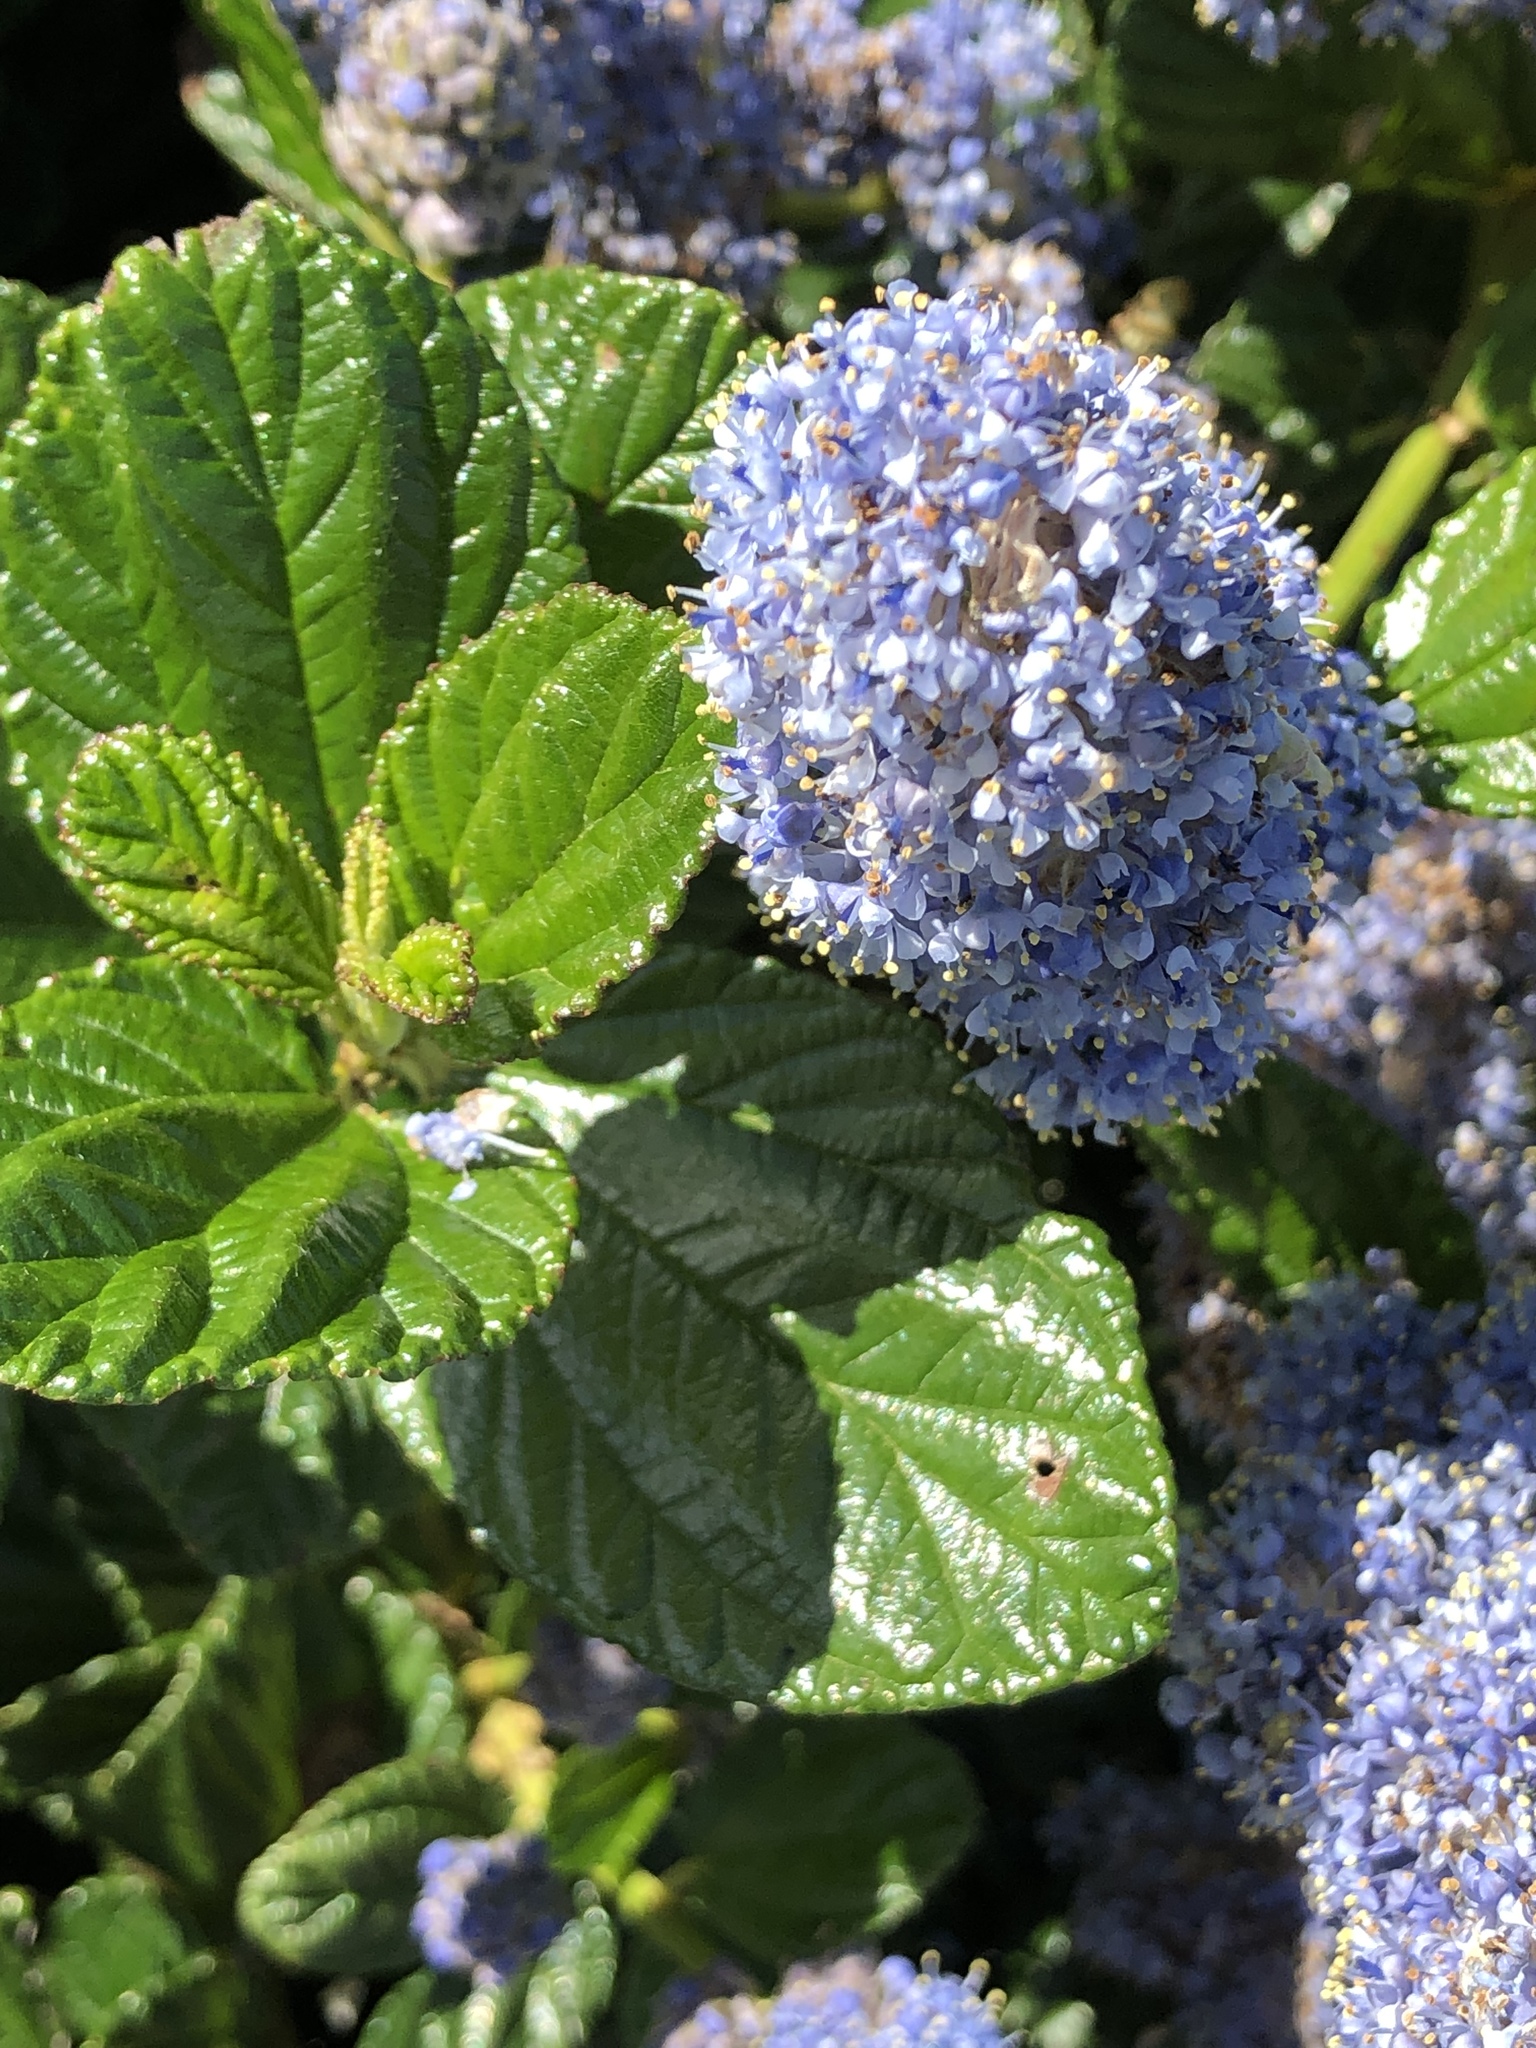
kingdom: Plantae
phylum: Tracheophyta
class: Magnoliopsida
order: Rosales
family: Rhamnaceae
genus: Ceanothus
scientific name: Ceanothus thyrsiflorus
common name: California-lilac
